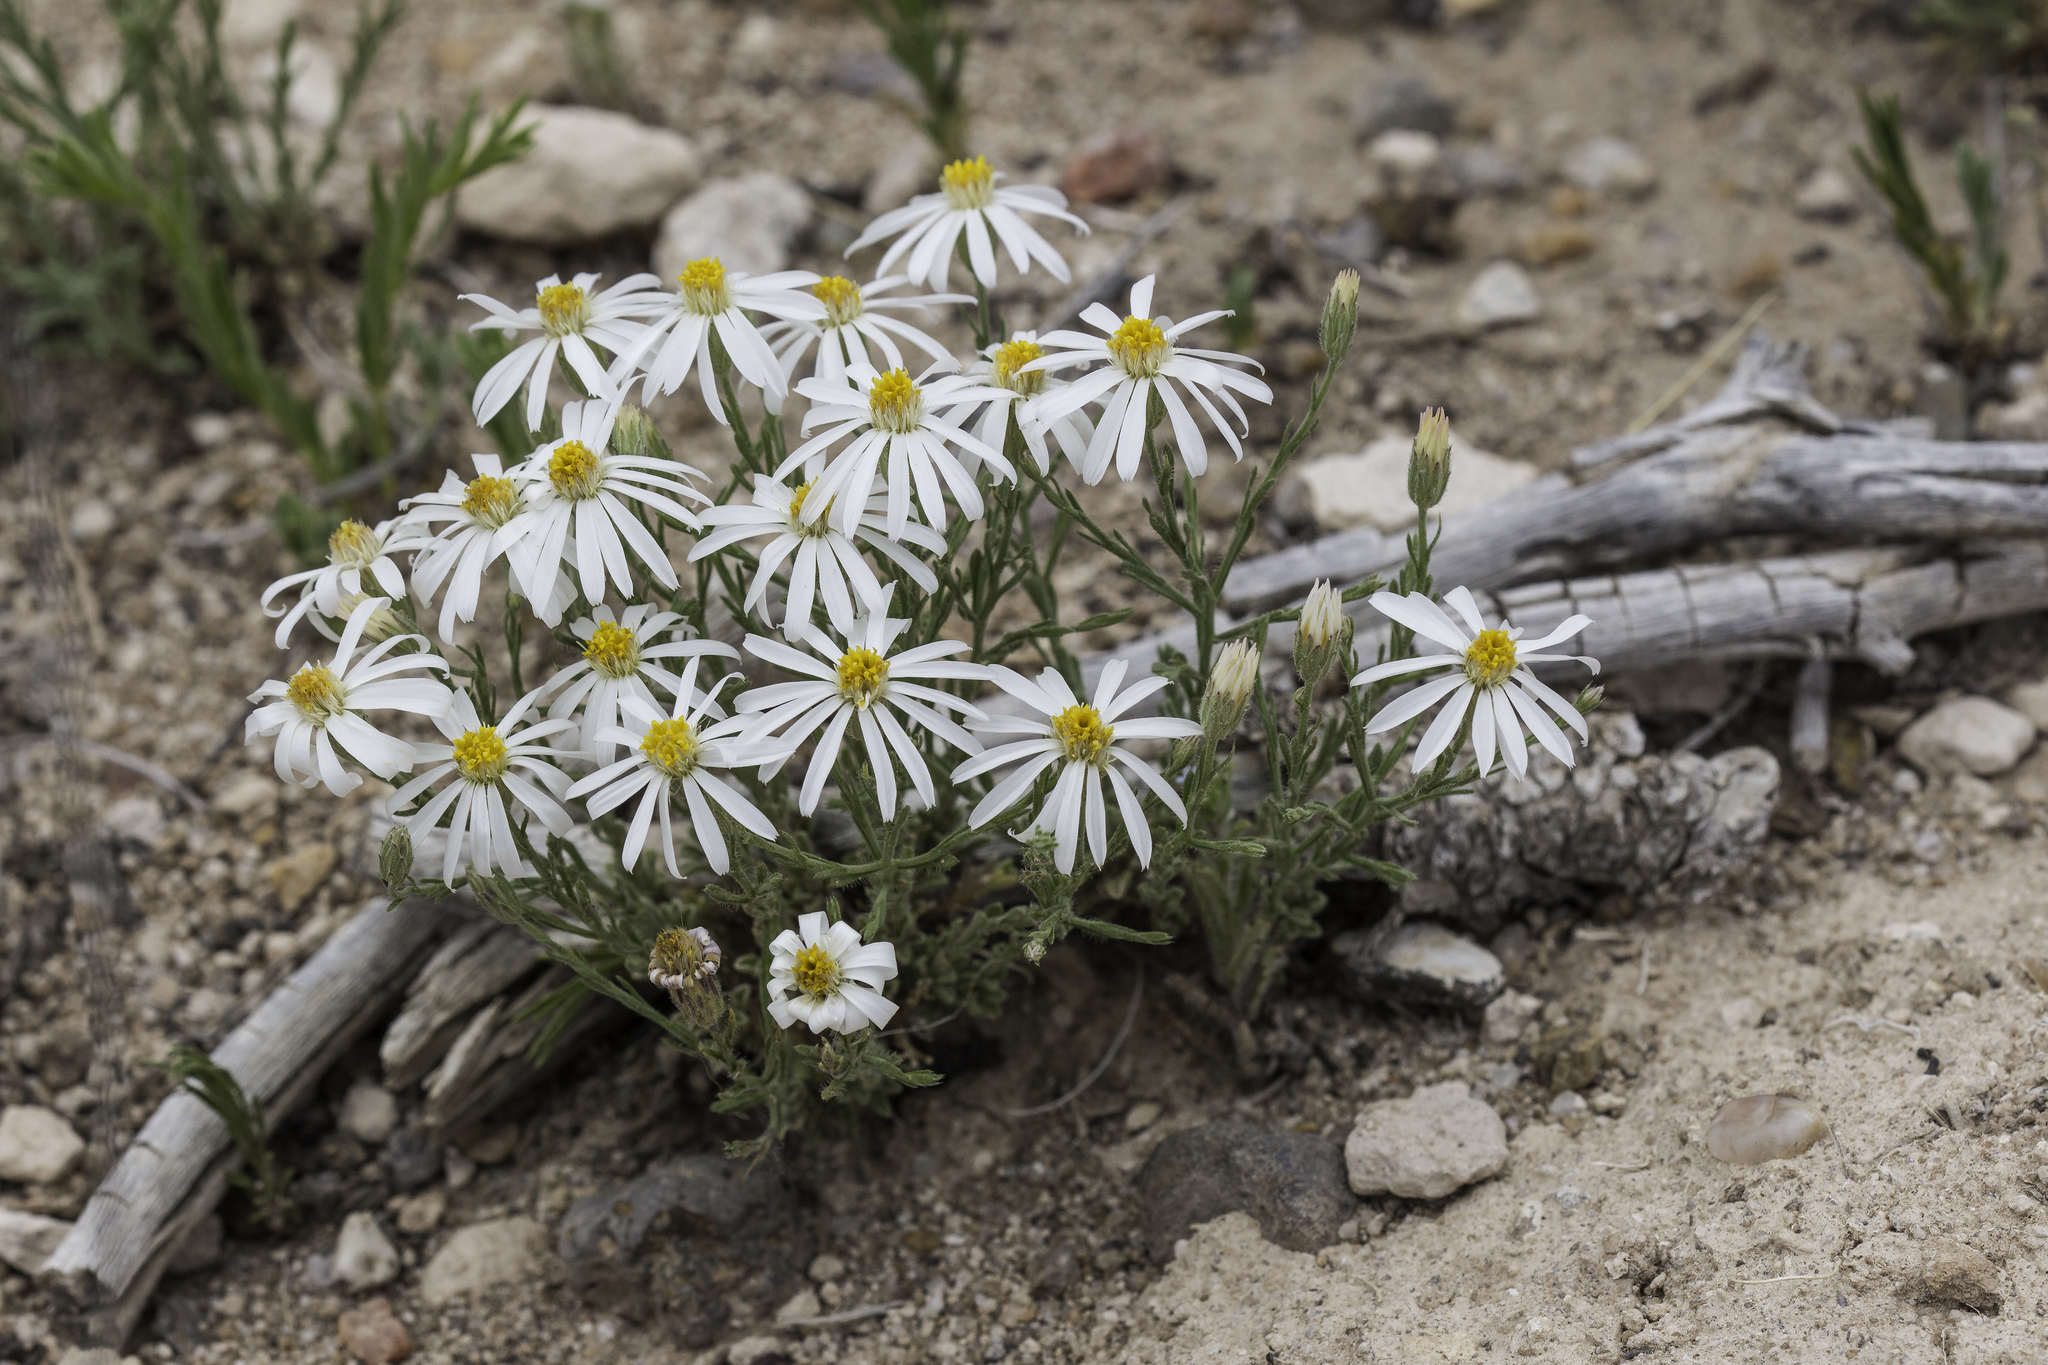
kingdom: Plantae
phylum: Tracheophyta
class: Magnoliopsida
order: Asterales
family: Asteraceae
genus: Chaetopappa
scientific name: Chaetopappa ericoides
